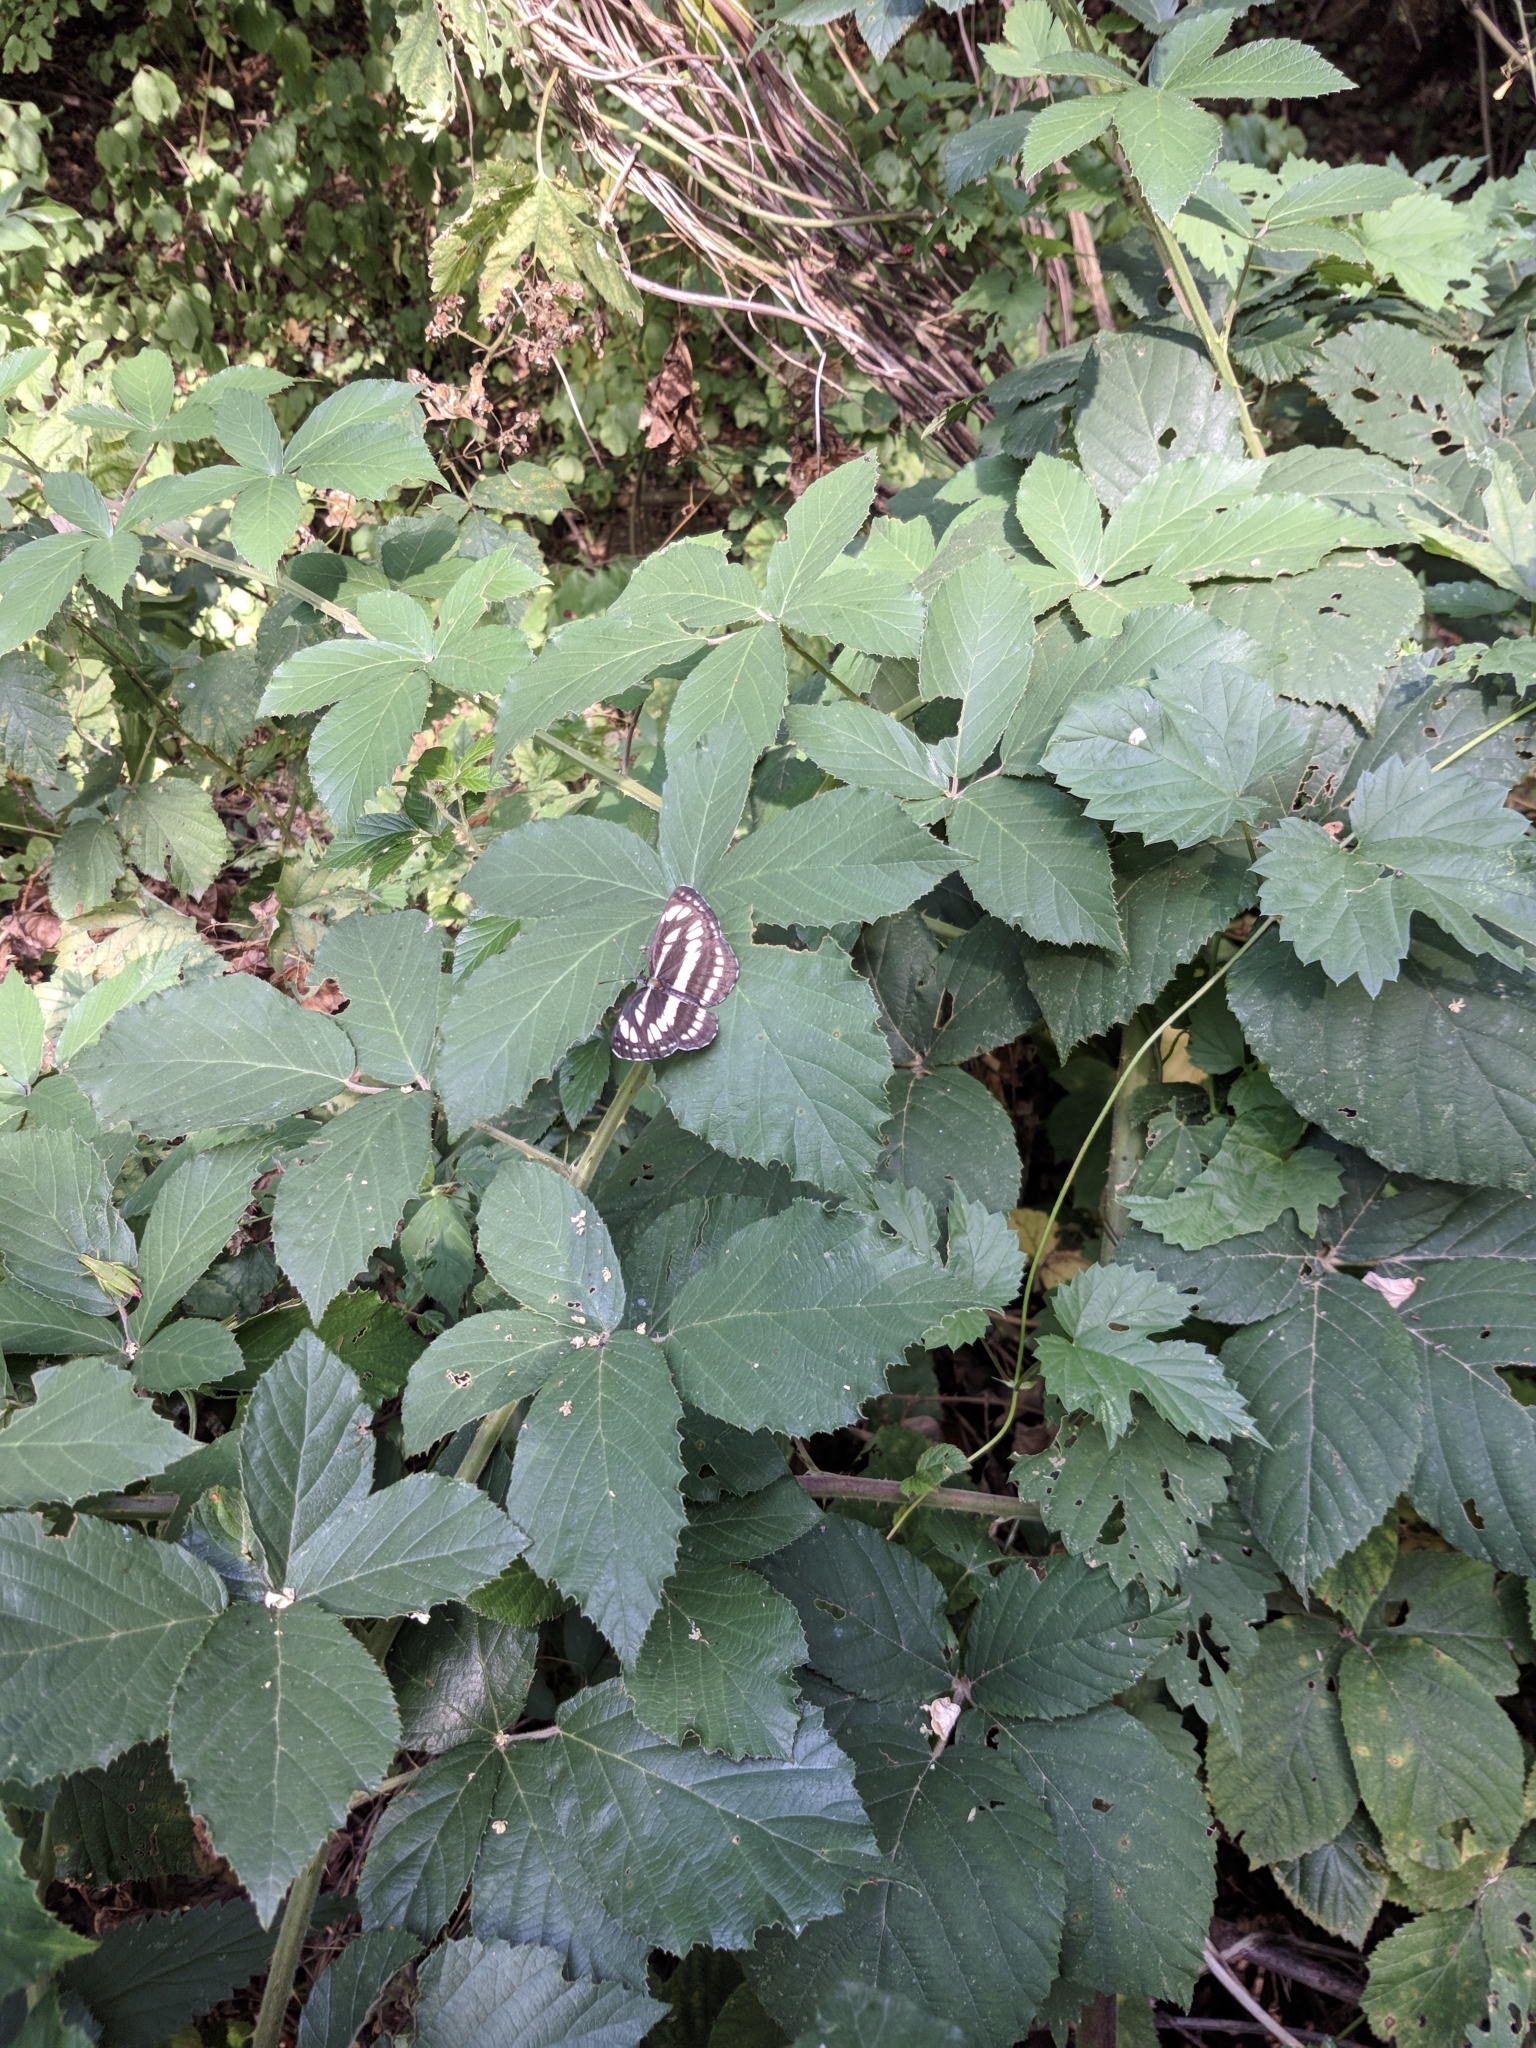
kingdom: Animalia
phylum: Arthropoda
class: Insecta
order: Lepidoptera
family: Nymphalidae
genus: Neptis
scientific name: Neptis sappho
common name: Common glider
